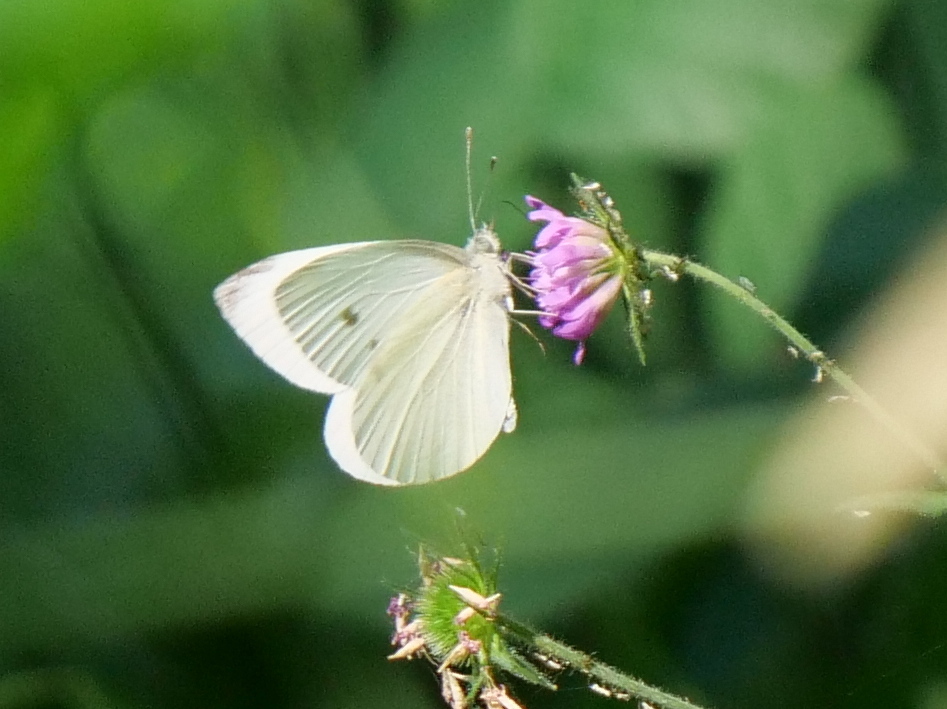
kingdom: Animalia
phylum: Arthropoda
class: Insecta
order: Lepidoptera
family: Pieridae
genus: Pieris
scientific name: Pieris rapae
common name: Small white
